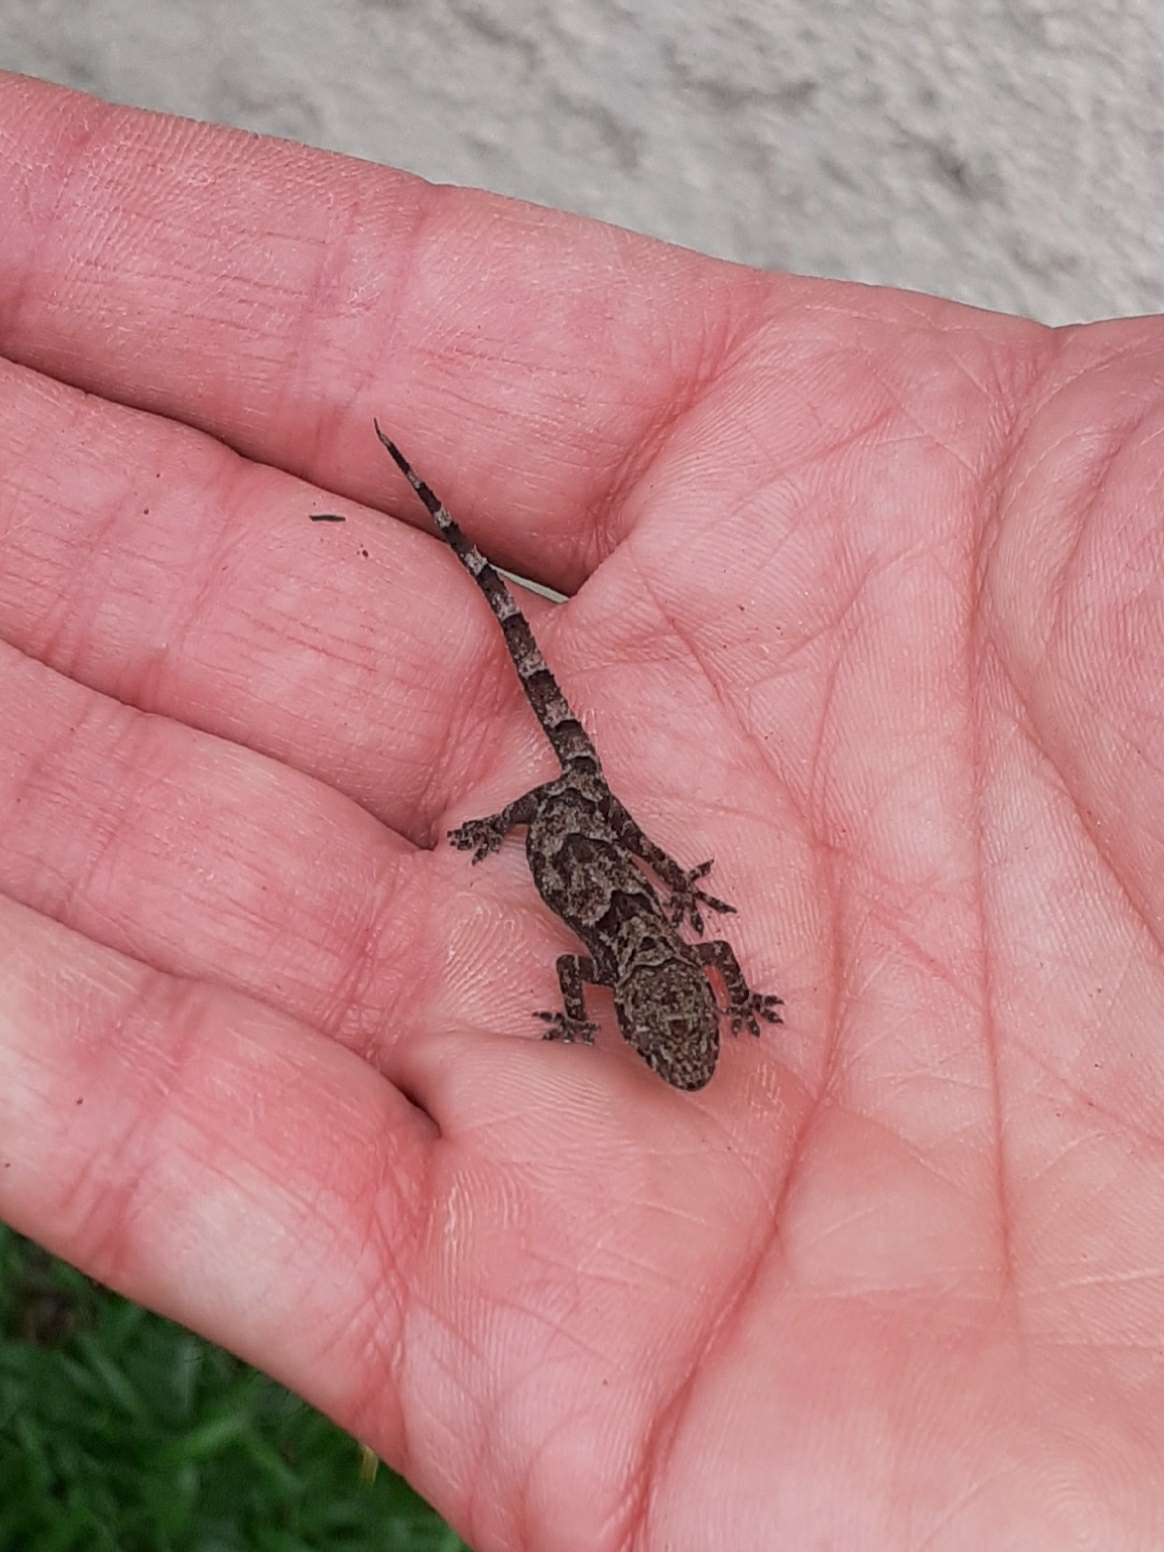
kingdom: Animalia
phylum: Chordata
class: Squamata
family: Gekkonidae
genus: Hemidactylus
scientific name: Hemidactylus mabouia
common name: House gecko
